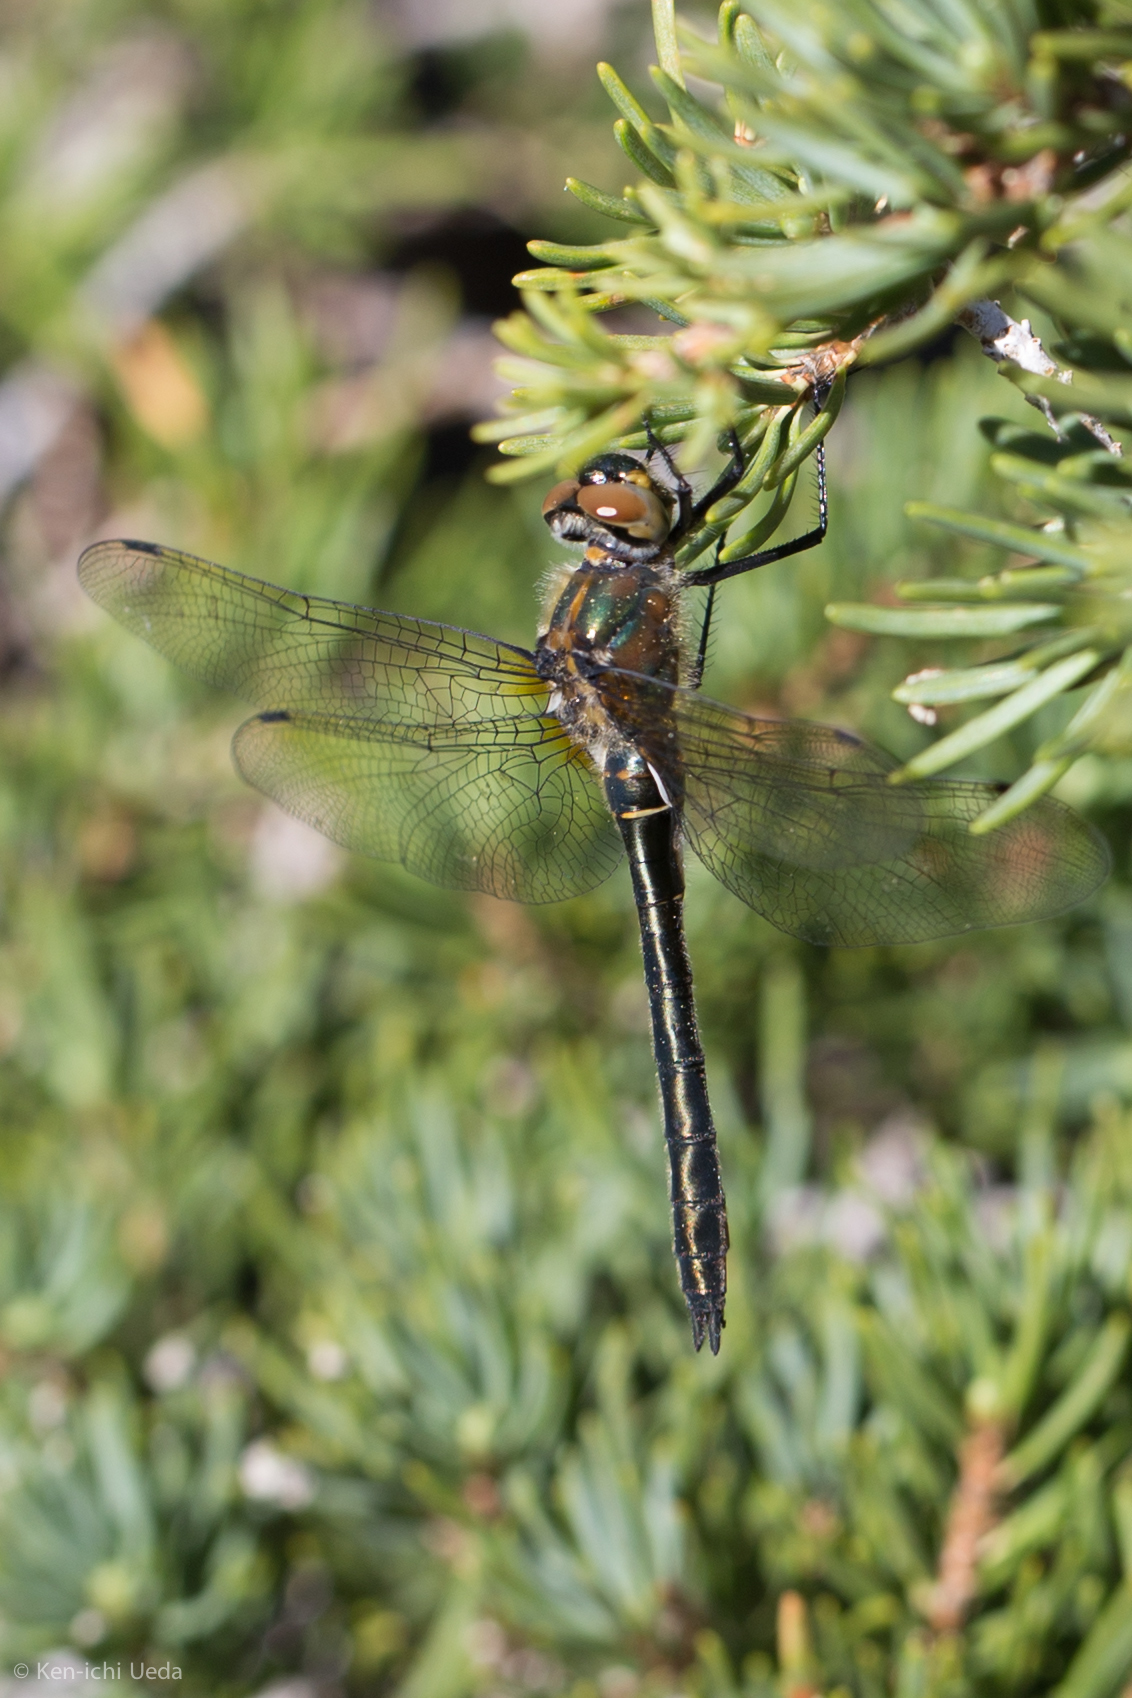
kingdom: Animalia
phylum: Arthropoda
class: Insecta
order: Odonata
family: Corduliidae
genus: Cordulia
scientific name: Cordulia shurtleffii
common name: American emerald
